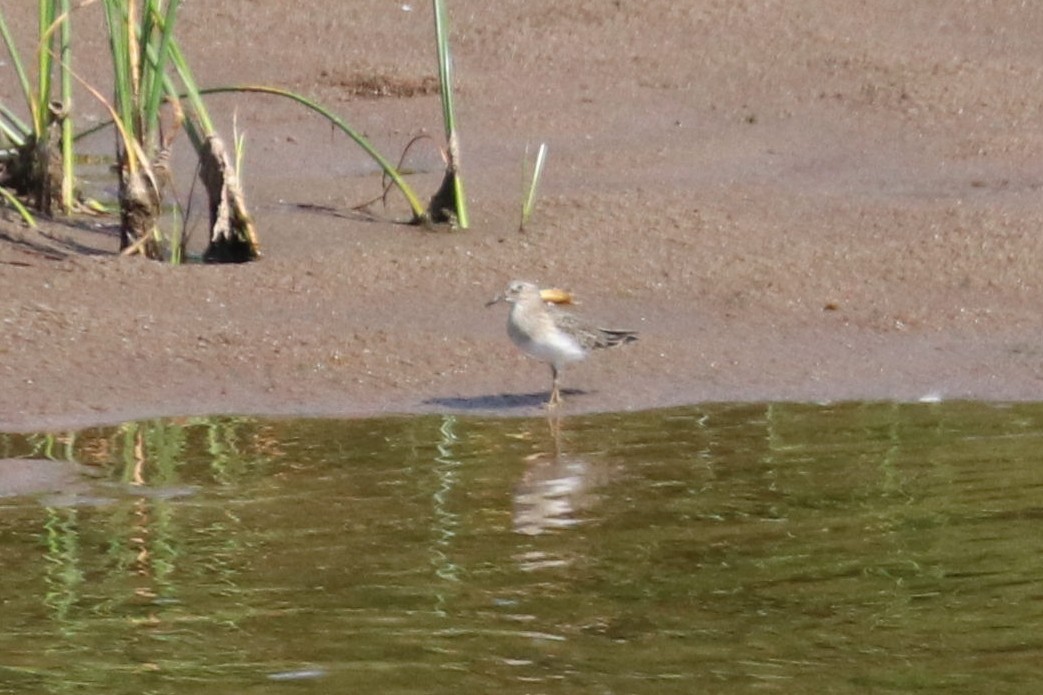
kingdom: Animalia
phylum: Chordata
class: Aves
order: Charadriiformes
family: Scolopacidae
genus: Calidris
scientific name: Calidris temminckii
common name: Temminck's stint
